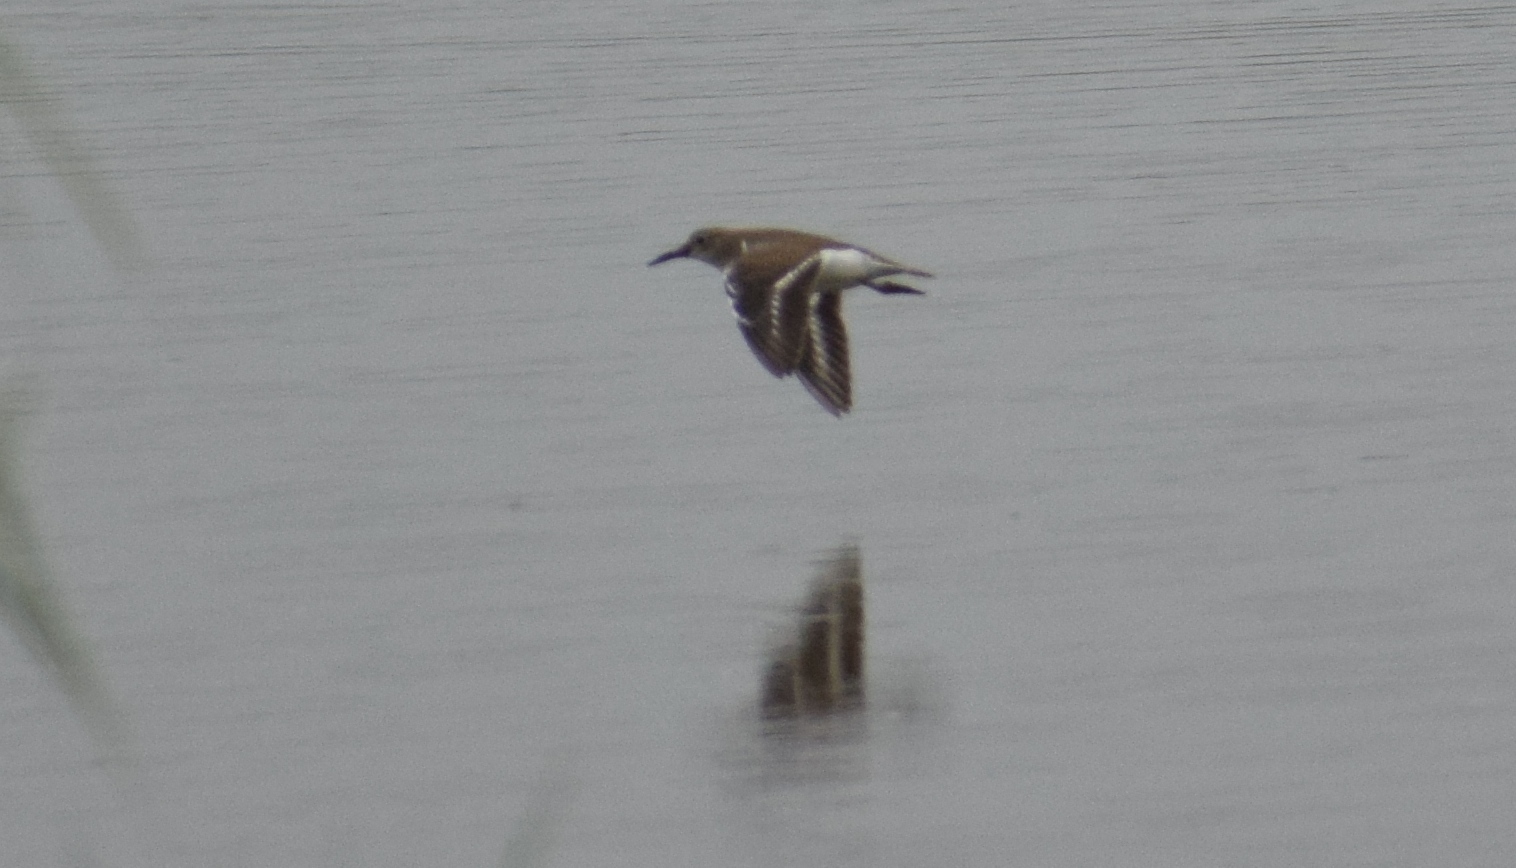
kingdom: Animalia
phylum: Chordata
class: Aves
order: Charadriiformes
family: Scolopacidae
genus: Actitis
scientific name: Actitis hypoleucos
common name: Common sandpiper
